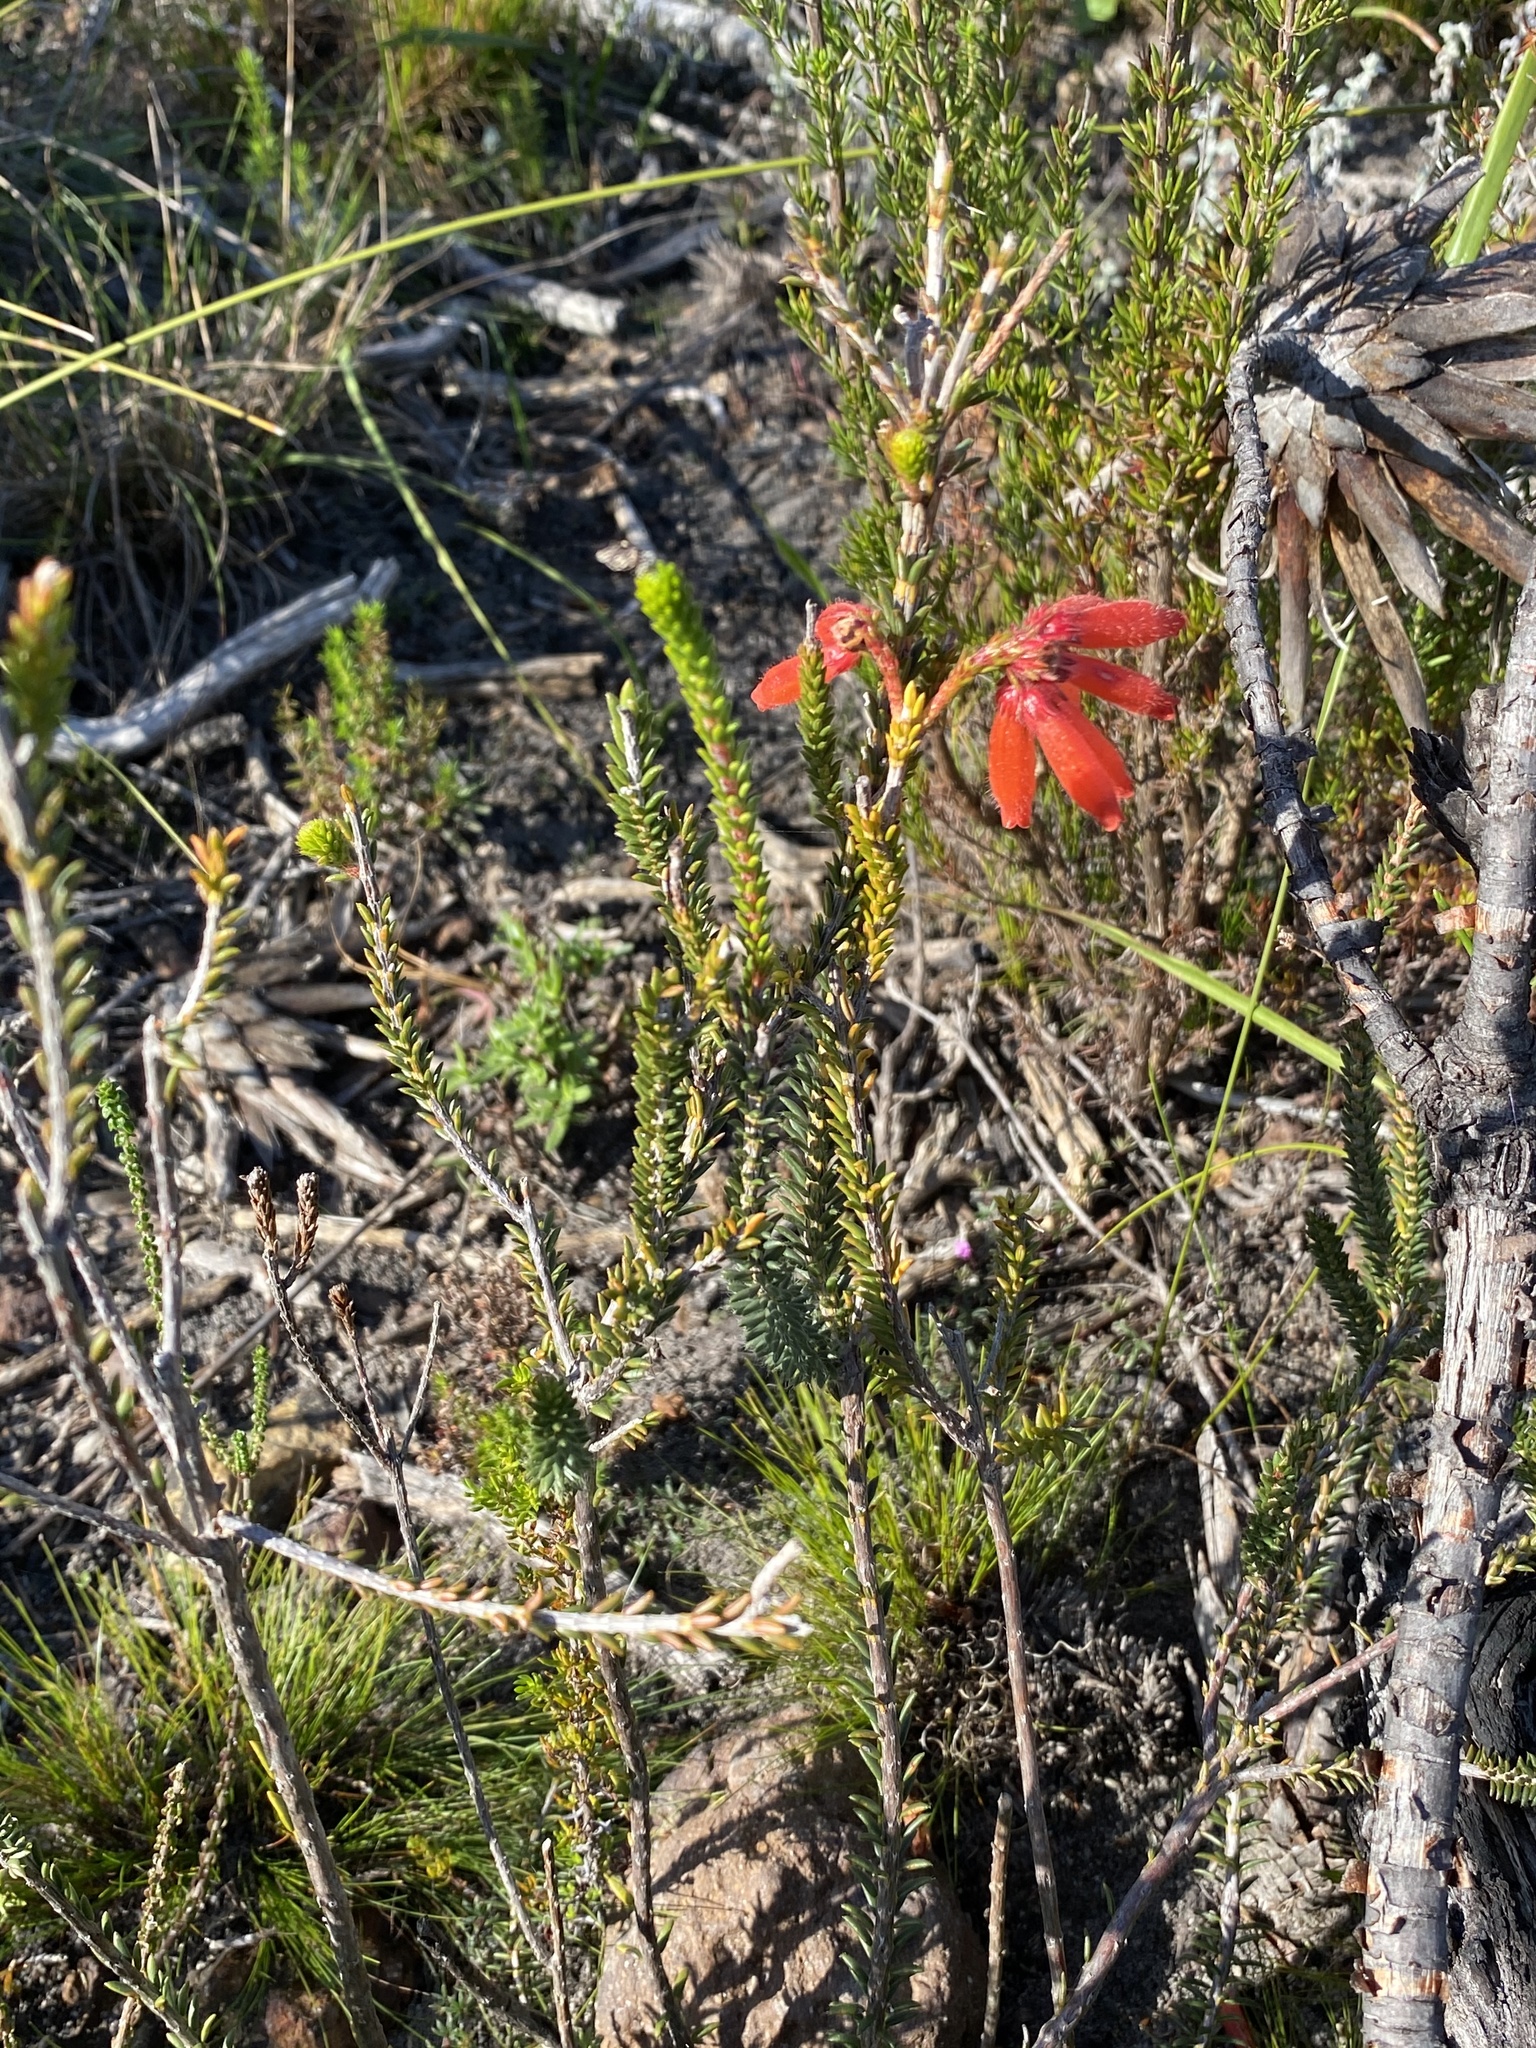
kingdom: Plantae
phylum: Tracheophyta
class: Magnoliopsida
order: Ericales
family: Ericaceae
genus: Erica
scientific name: Erica cerinthoides
